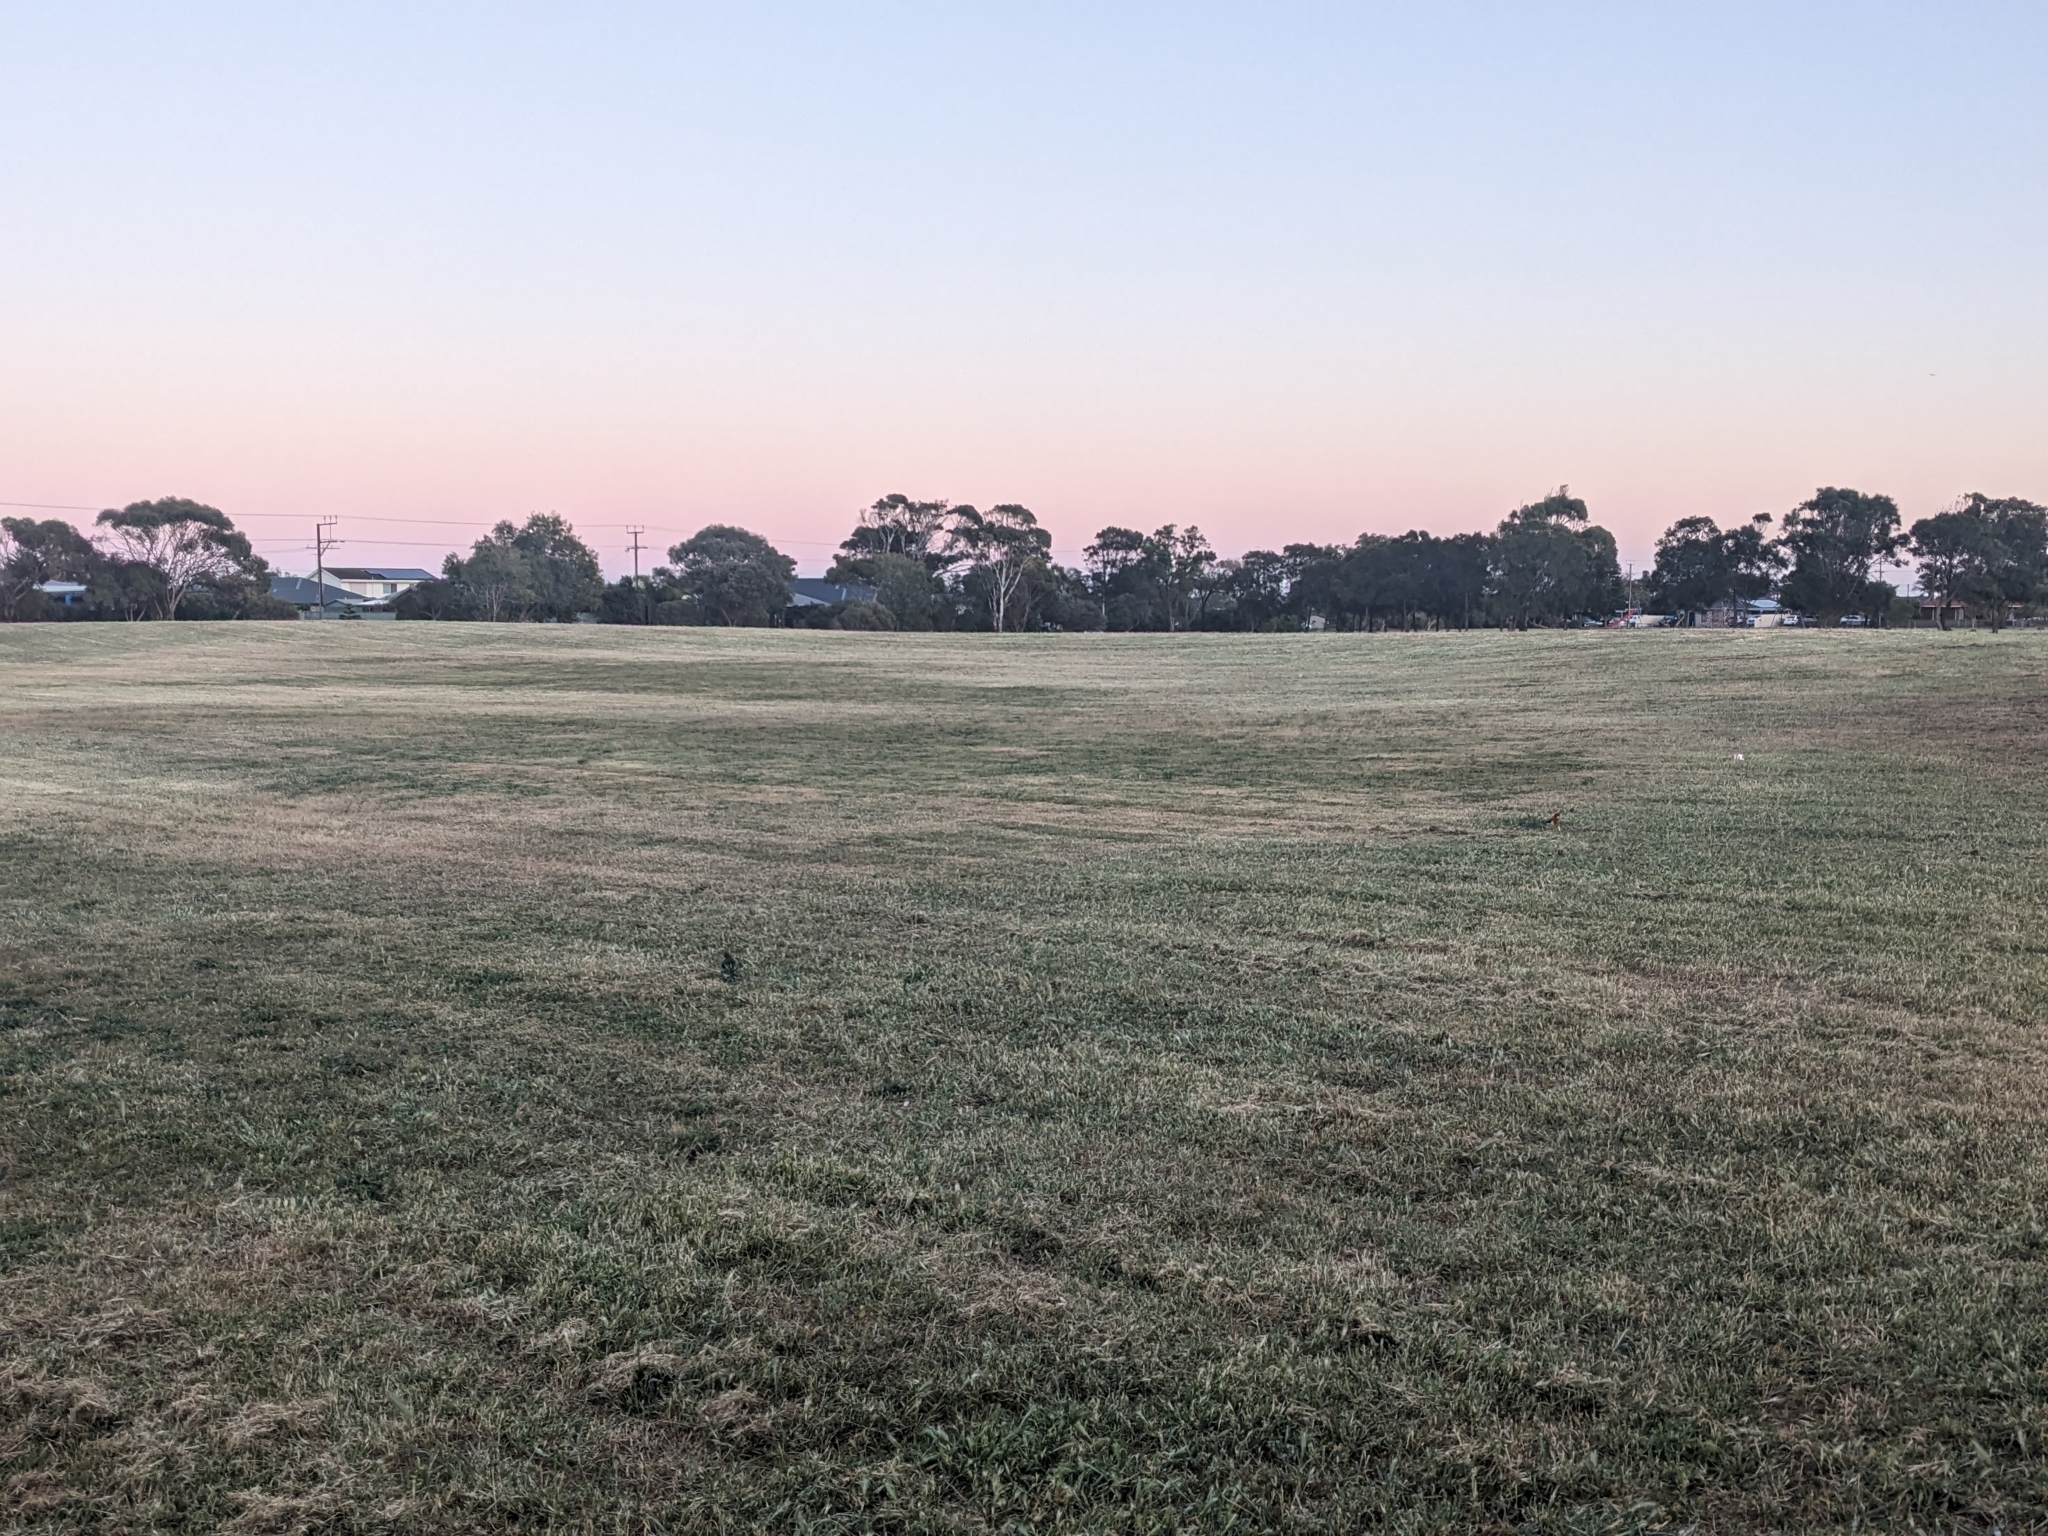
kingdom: Animalia
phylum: Chordata
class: Aves
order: Psittaciformes
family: Psittacidae
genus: Platycercus
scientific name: Platycercus eximius
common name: Eastern rosella
